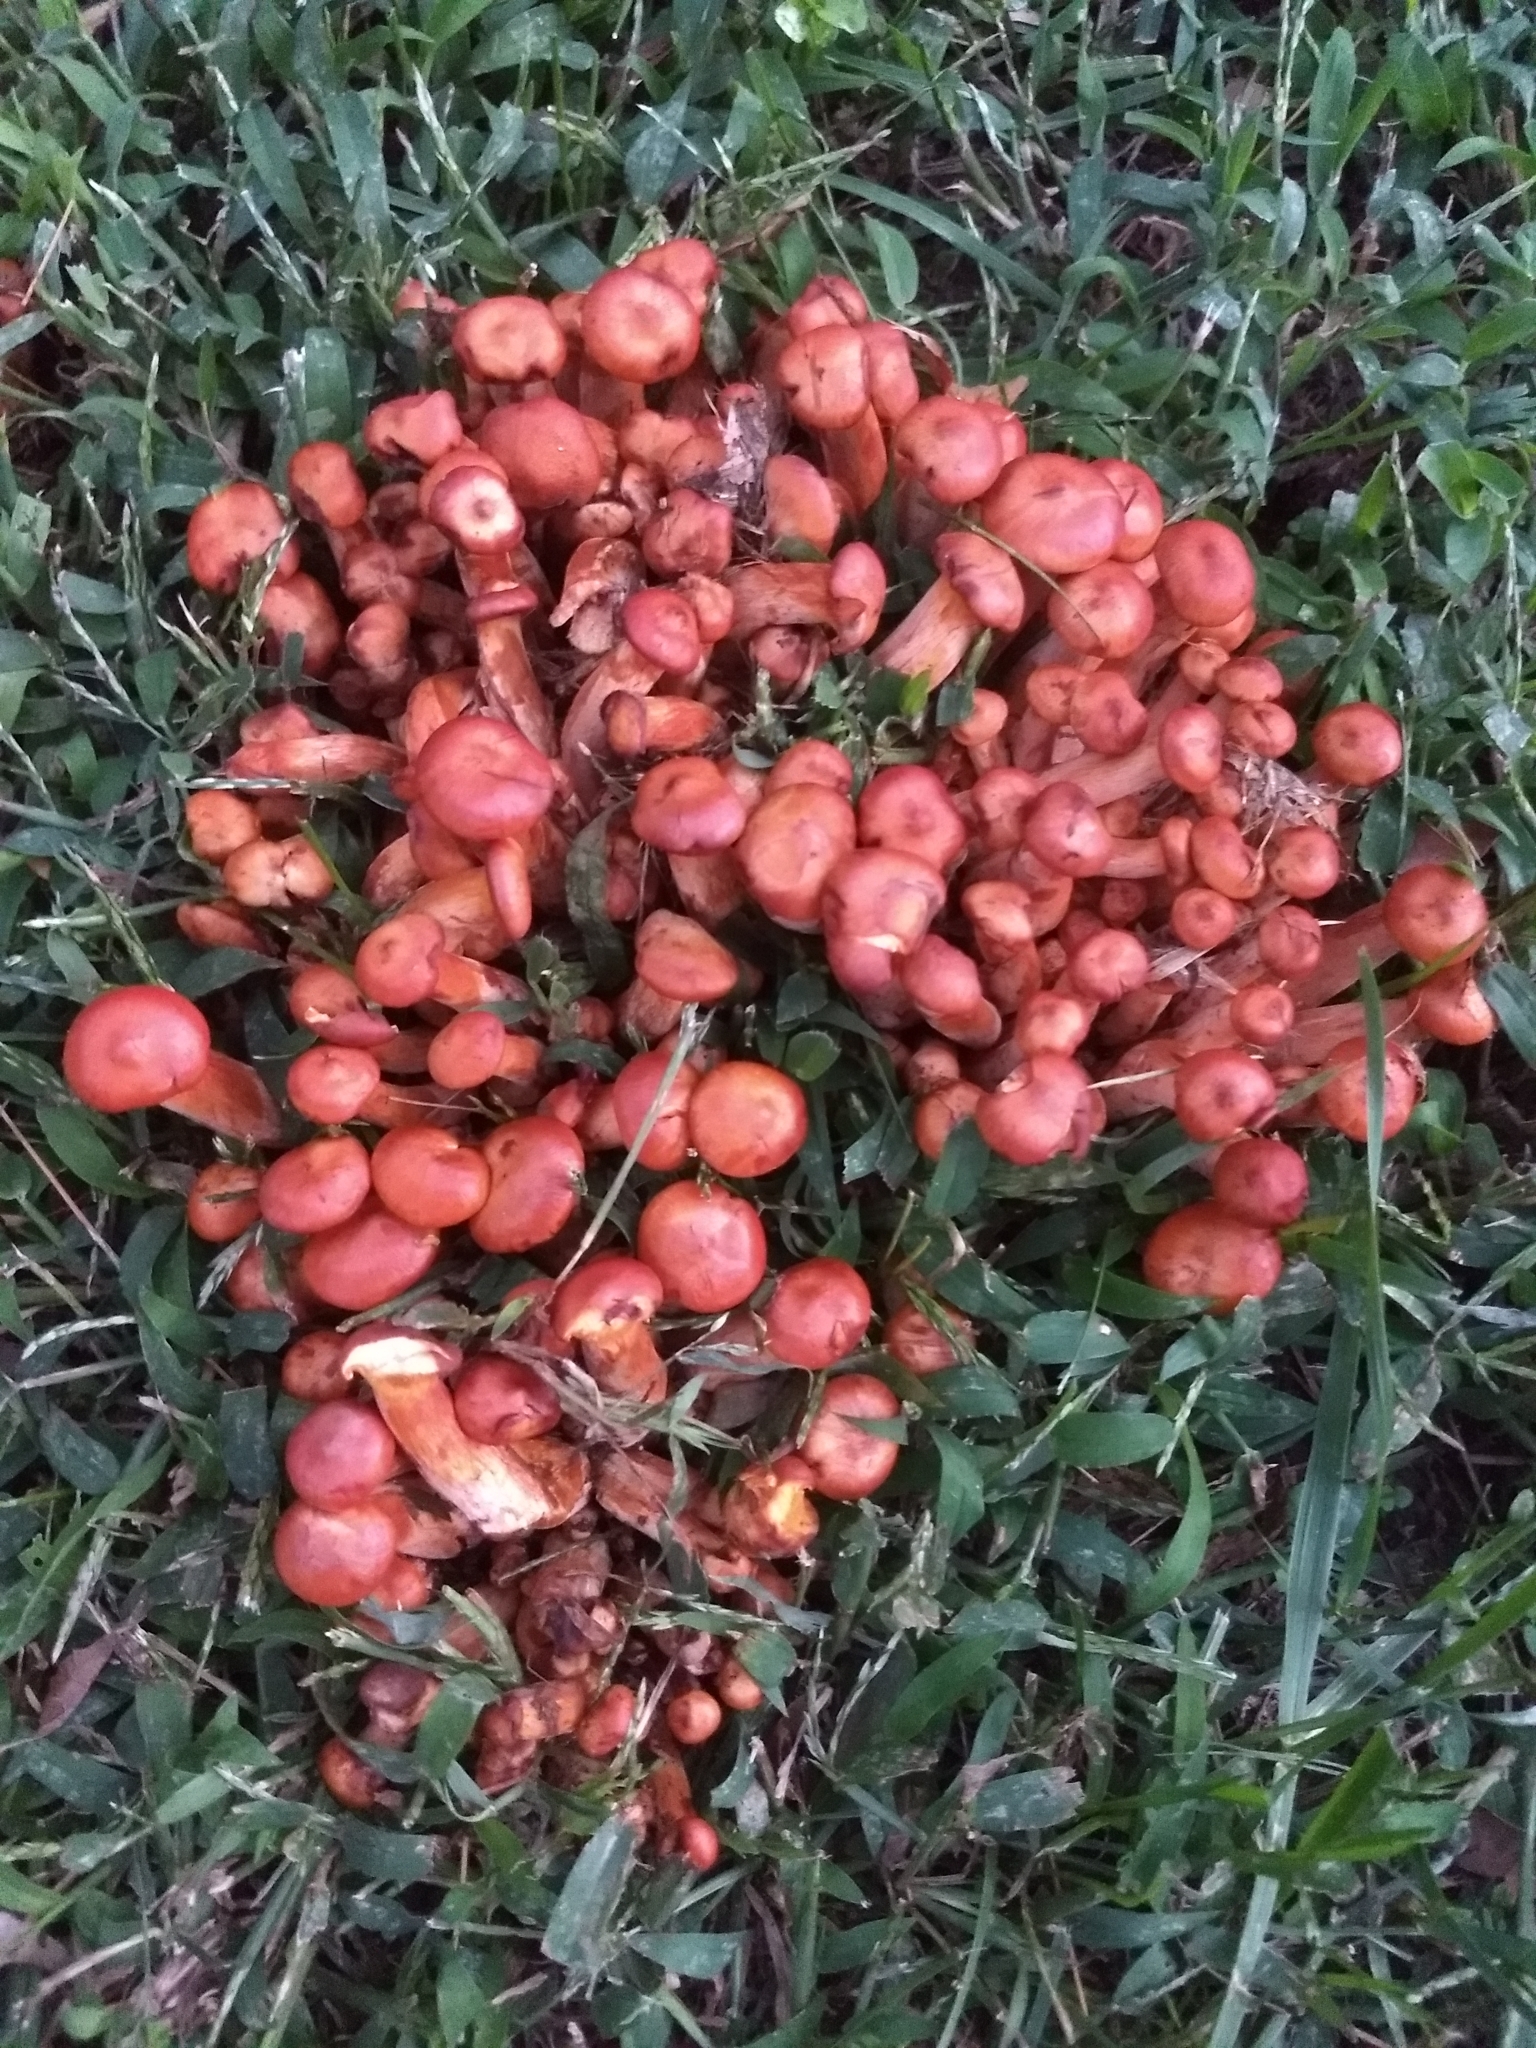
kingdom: Fungi
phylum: Basidiomycota
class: Agaricomycetes
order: Agaricales
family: Omphalotaceae
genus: Omphalotus
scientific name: Omphalotus illudens
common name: Jack o lantern
